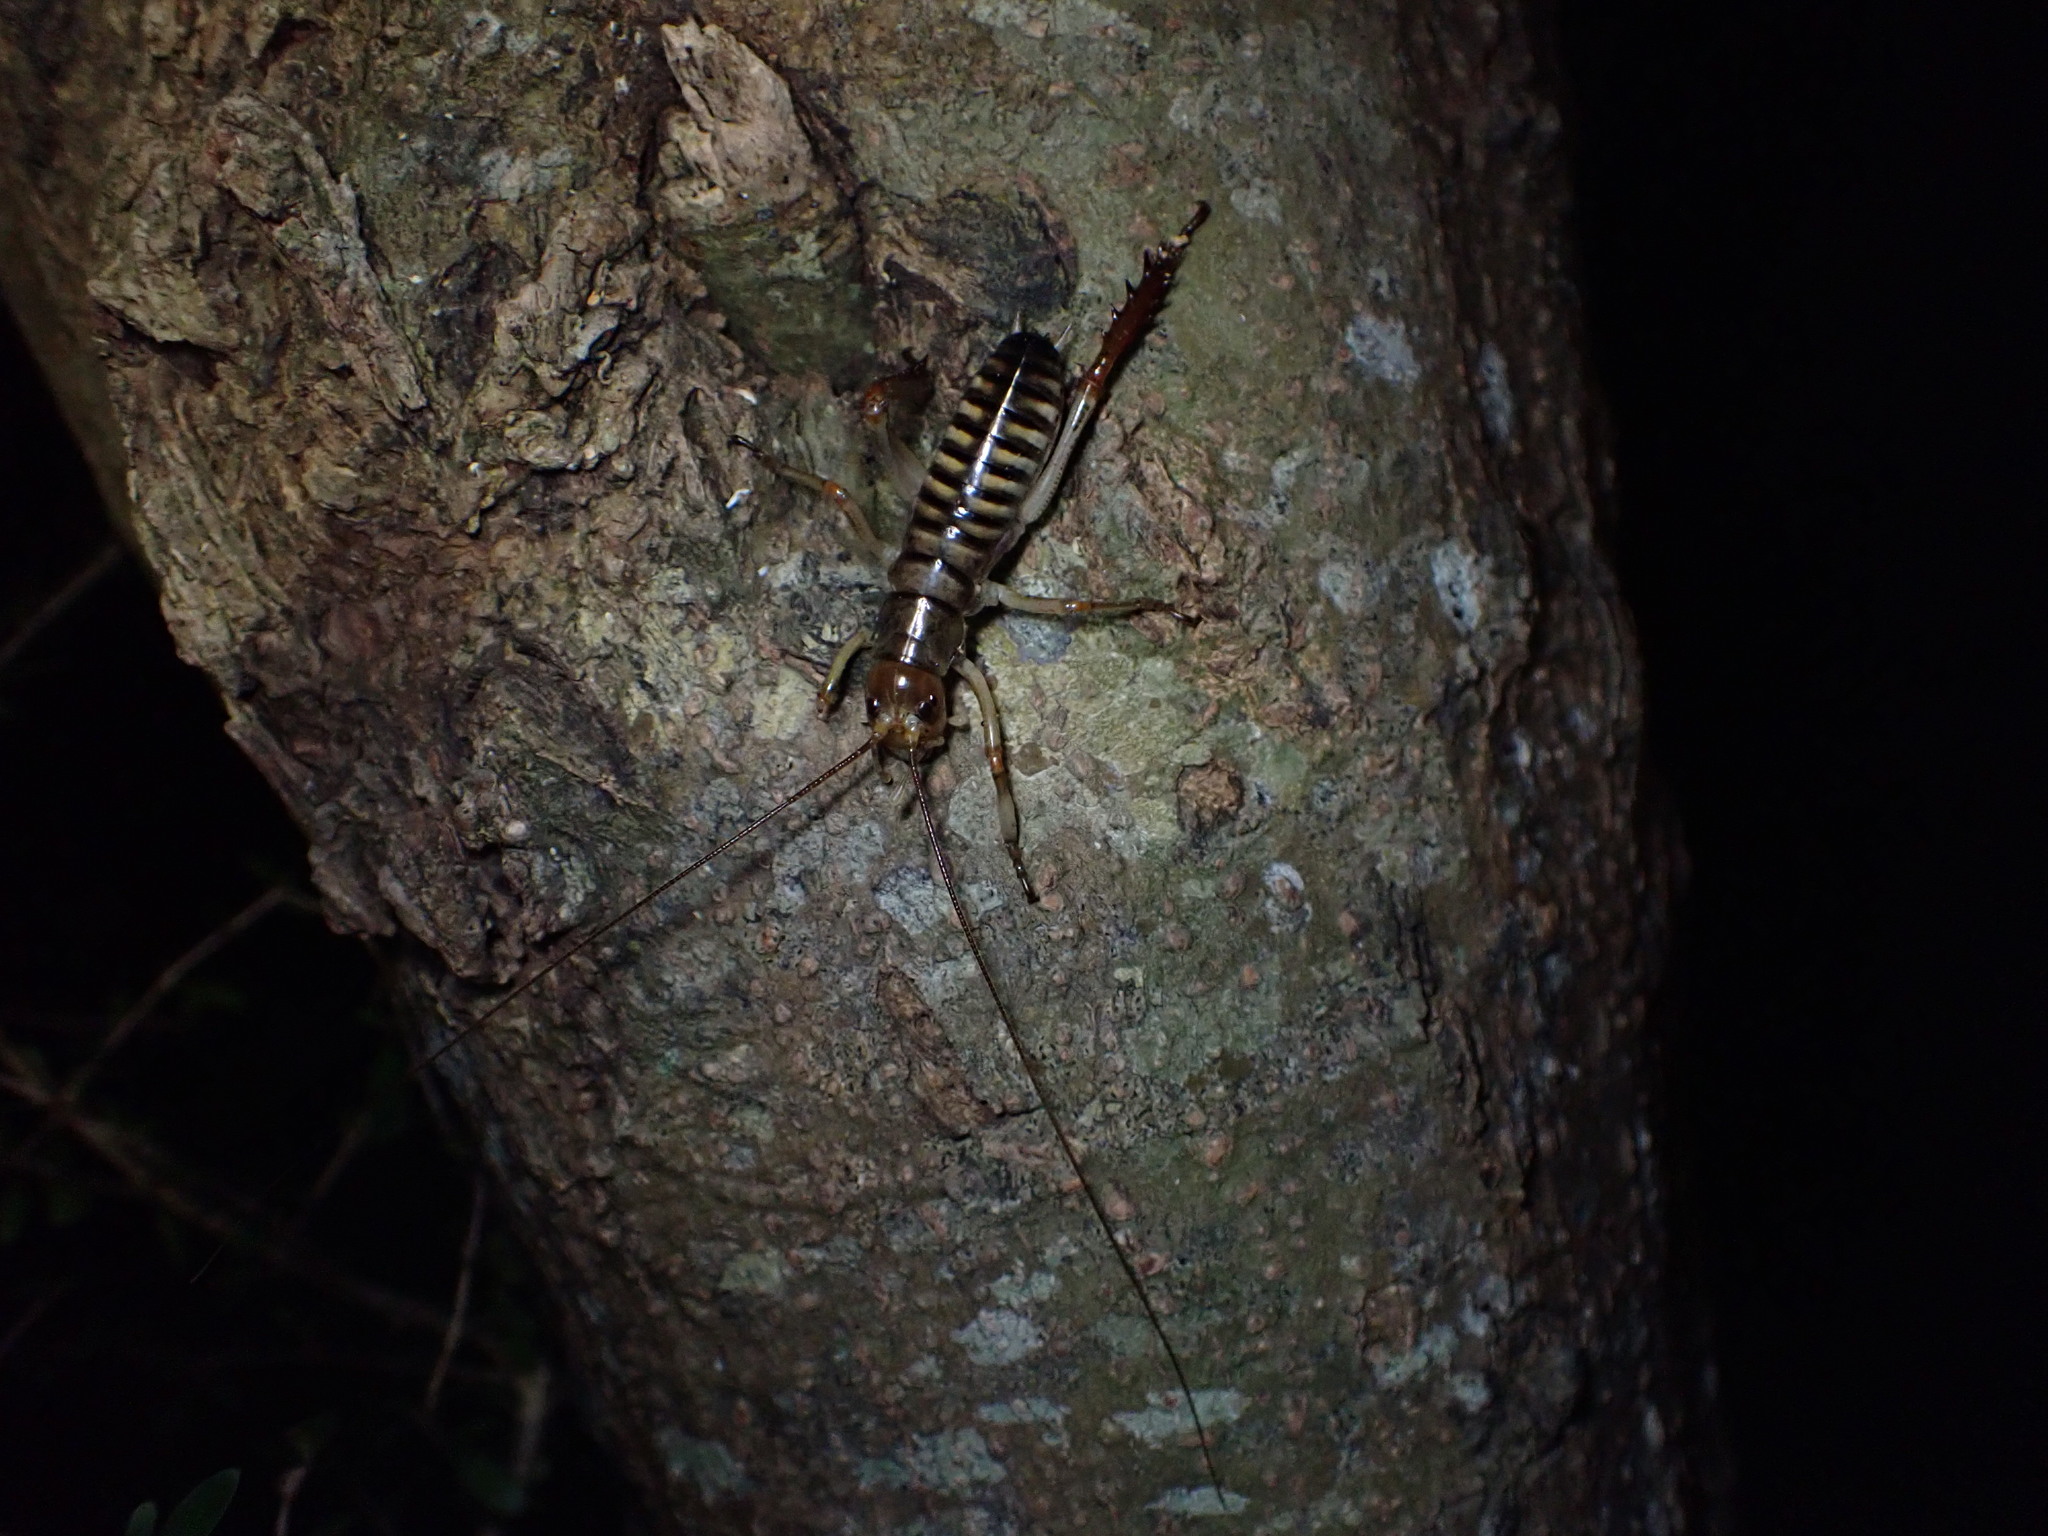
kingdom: Animalia
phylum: Arthropoda
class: Insecta
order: Orthoptera
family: Anostostomatidae
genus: Hemideina
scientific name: Hemideina crassidens
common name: Wellington tree weta
